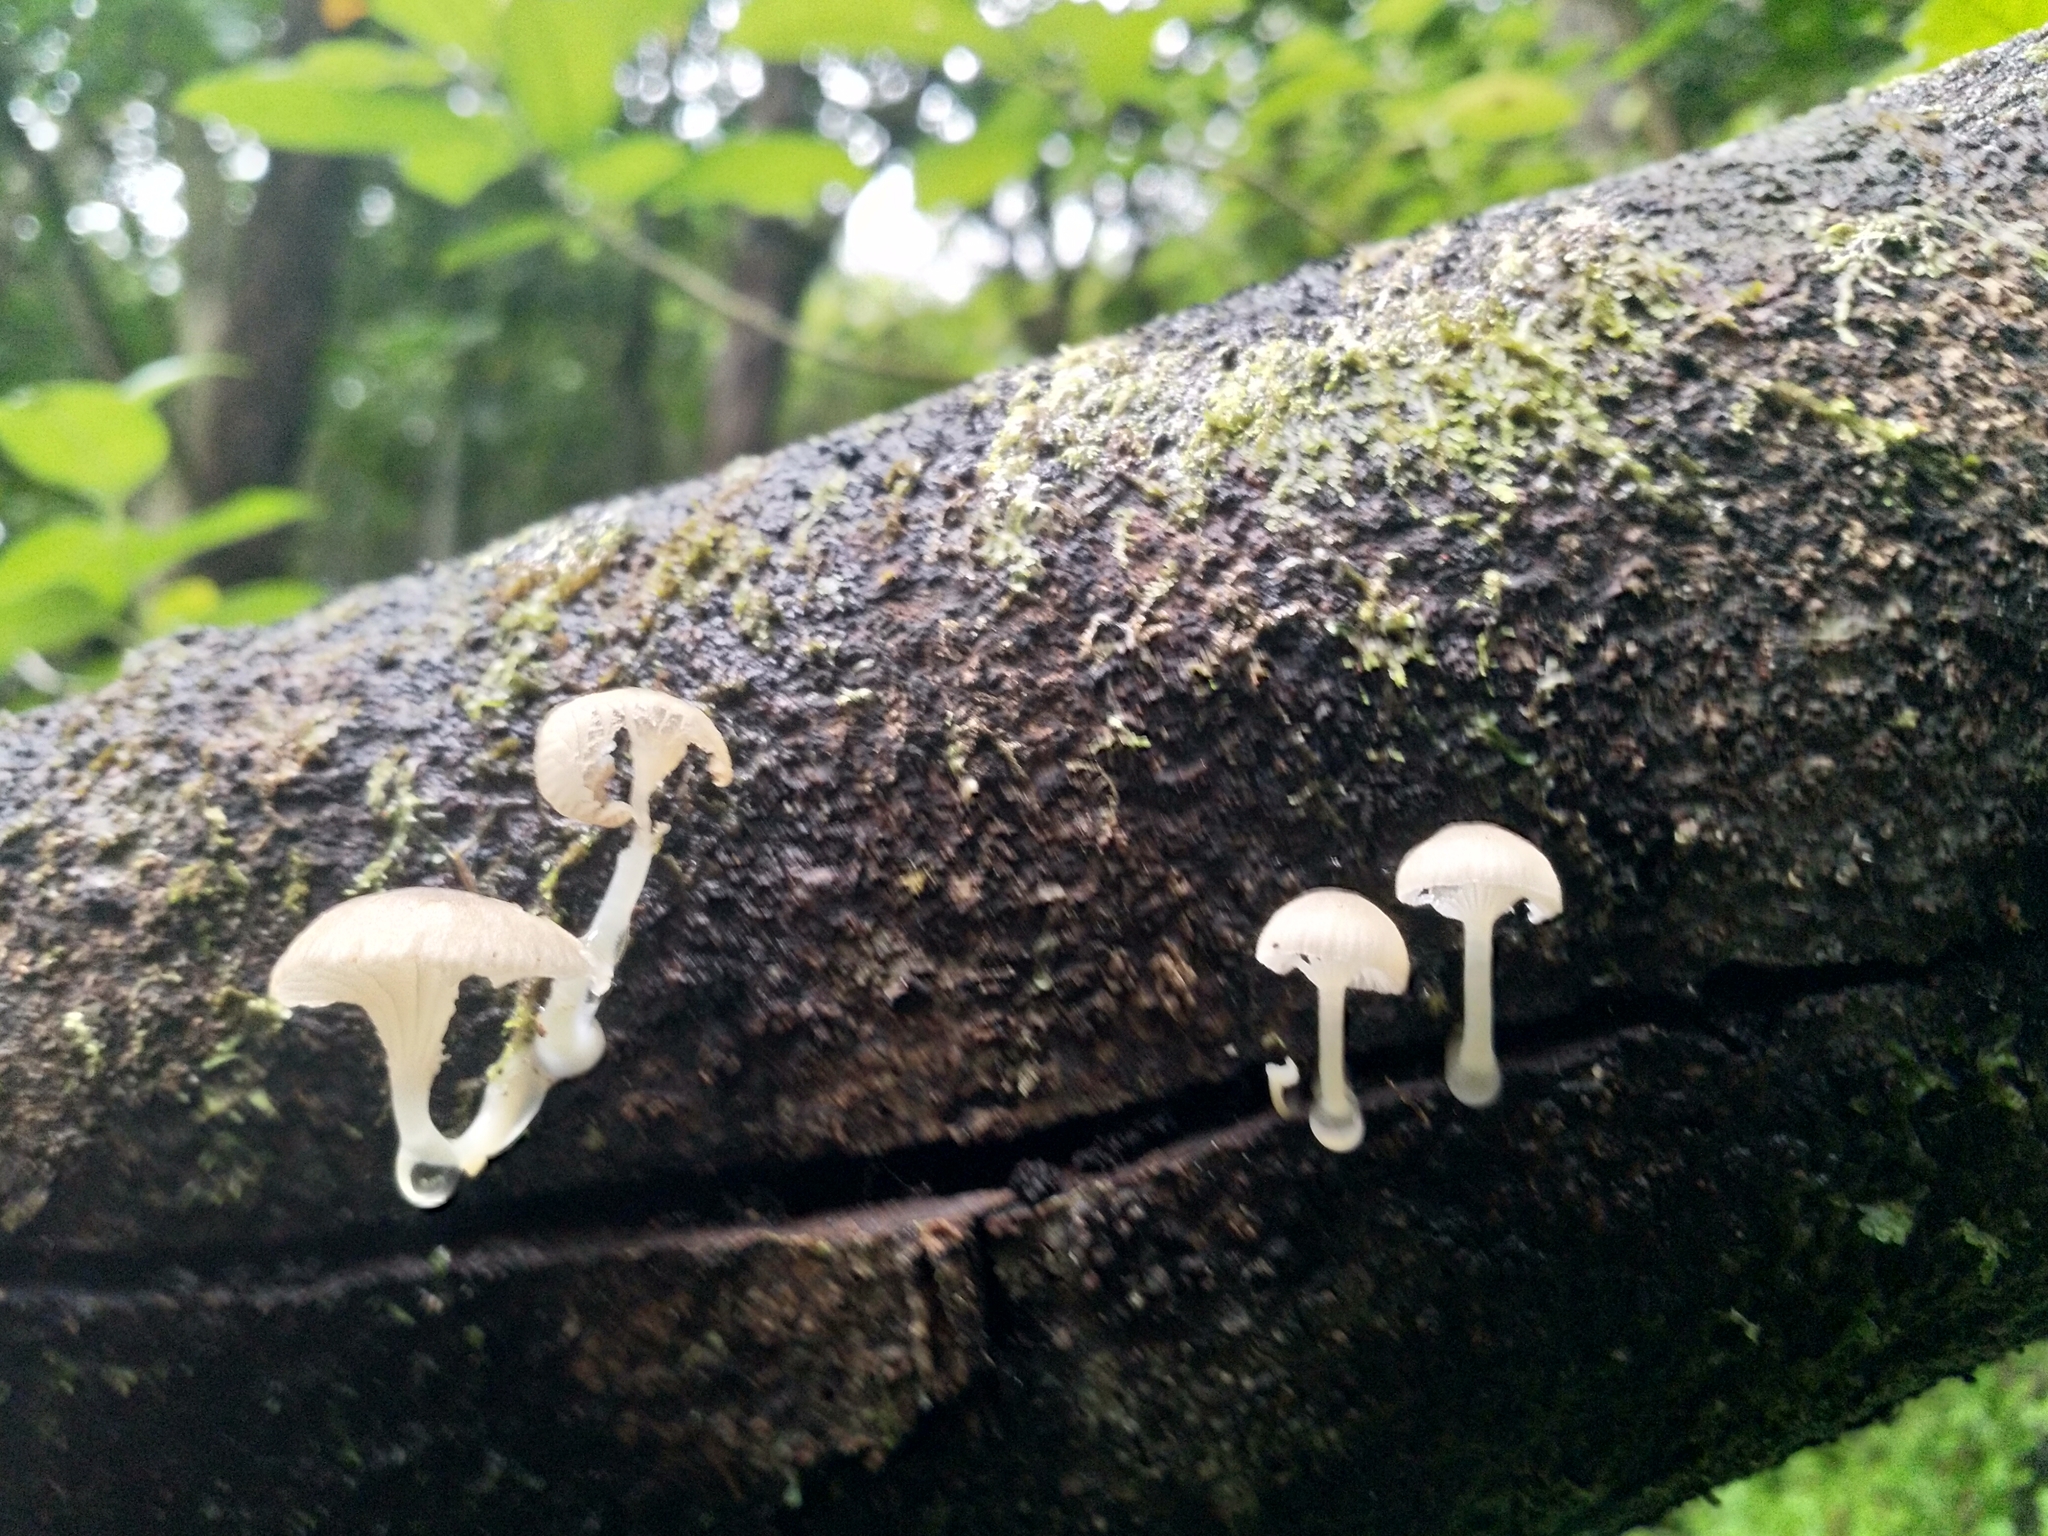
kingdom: Fungi
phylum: Basidiomycota
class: Agaricomycetes
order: Agaricales
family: Mycenaceae
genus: Roridomyces
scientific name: Roridomyces austrororidus
